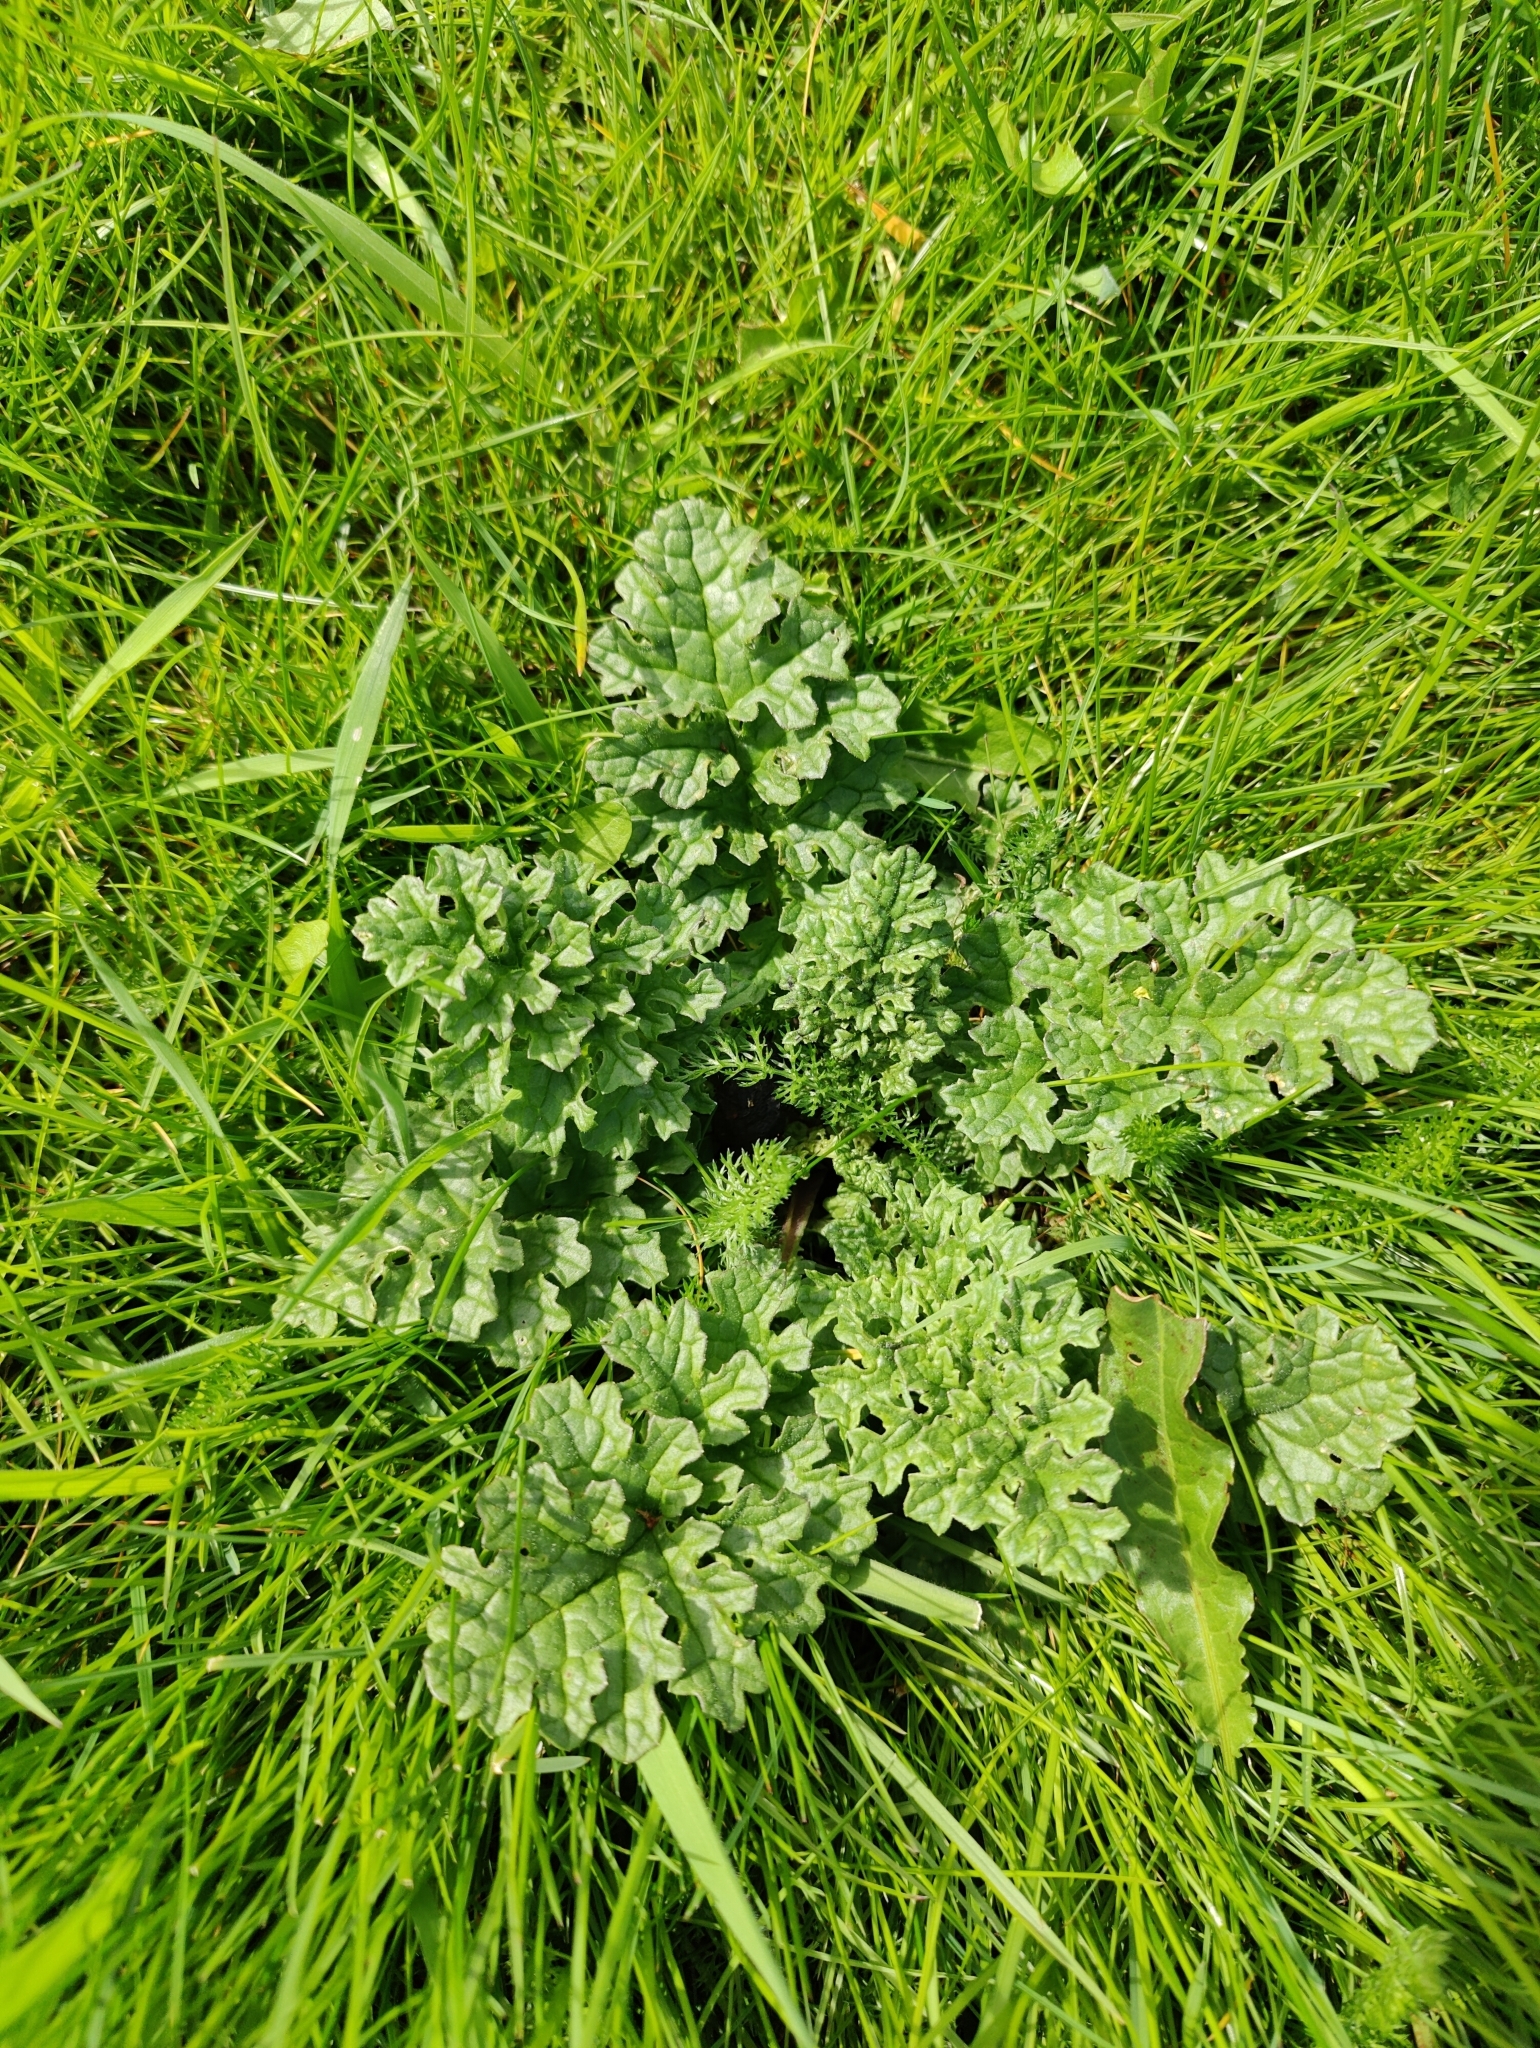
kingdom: Plantae
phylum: Tracheophyta
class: Magnoliopsida
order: Asterales
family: Asteraceae
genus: Jacobaea
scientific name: Jacobaea vulgaris
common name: Stinking willie
